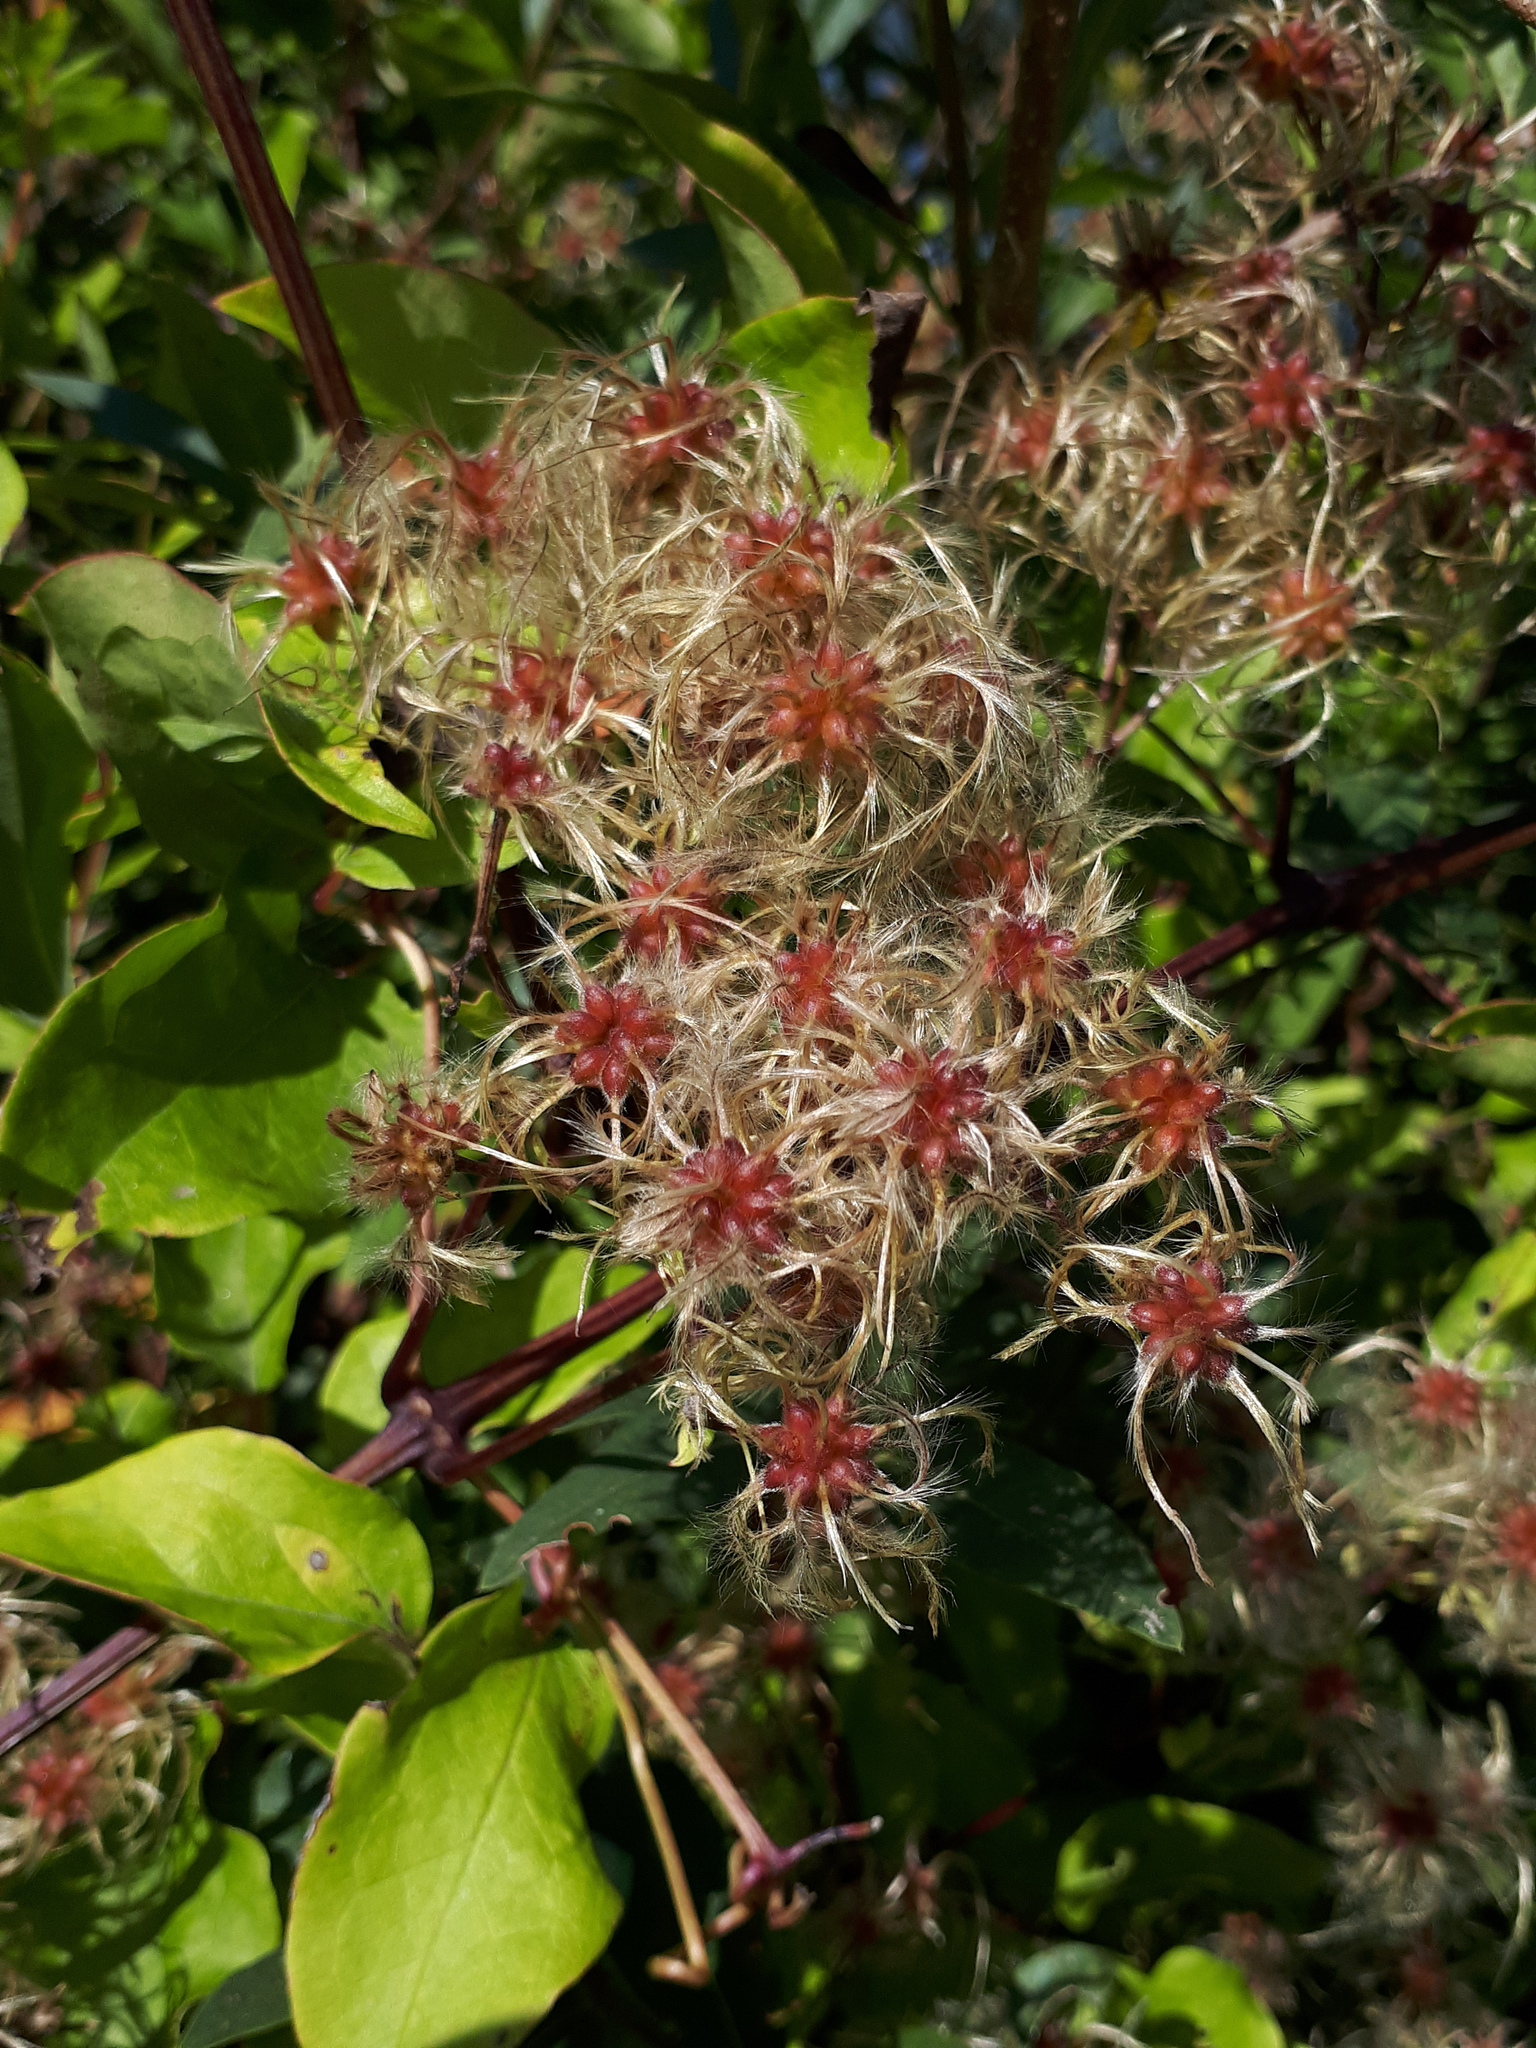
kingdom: Plantae
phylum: Tracheophyta
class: Magnoliopsida
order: Ranunculales
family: Ranunculaceae
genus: Clematis
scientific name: Clematis vitalba
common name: Evergreen clematis
